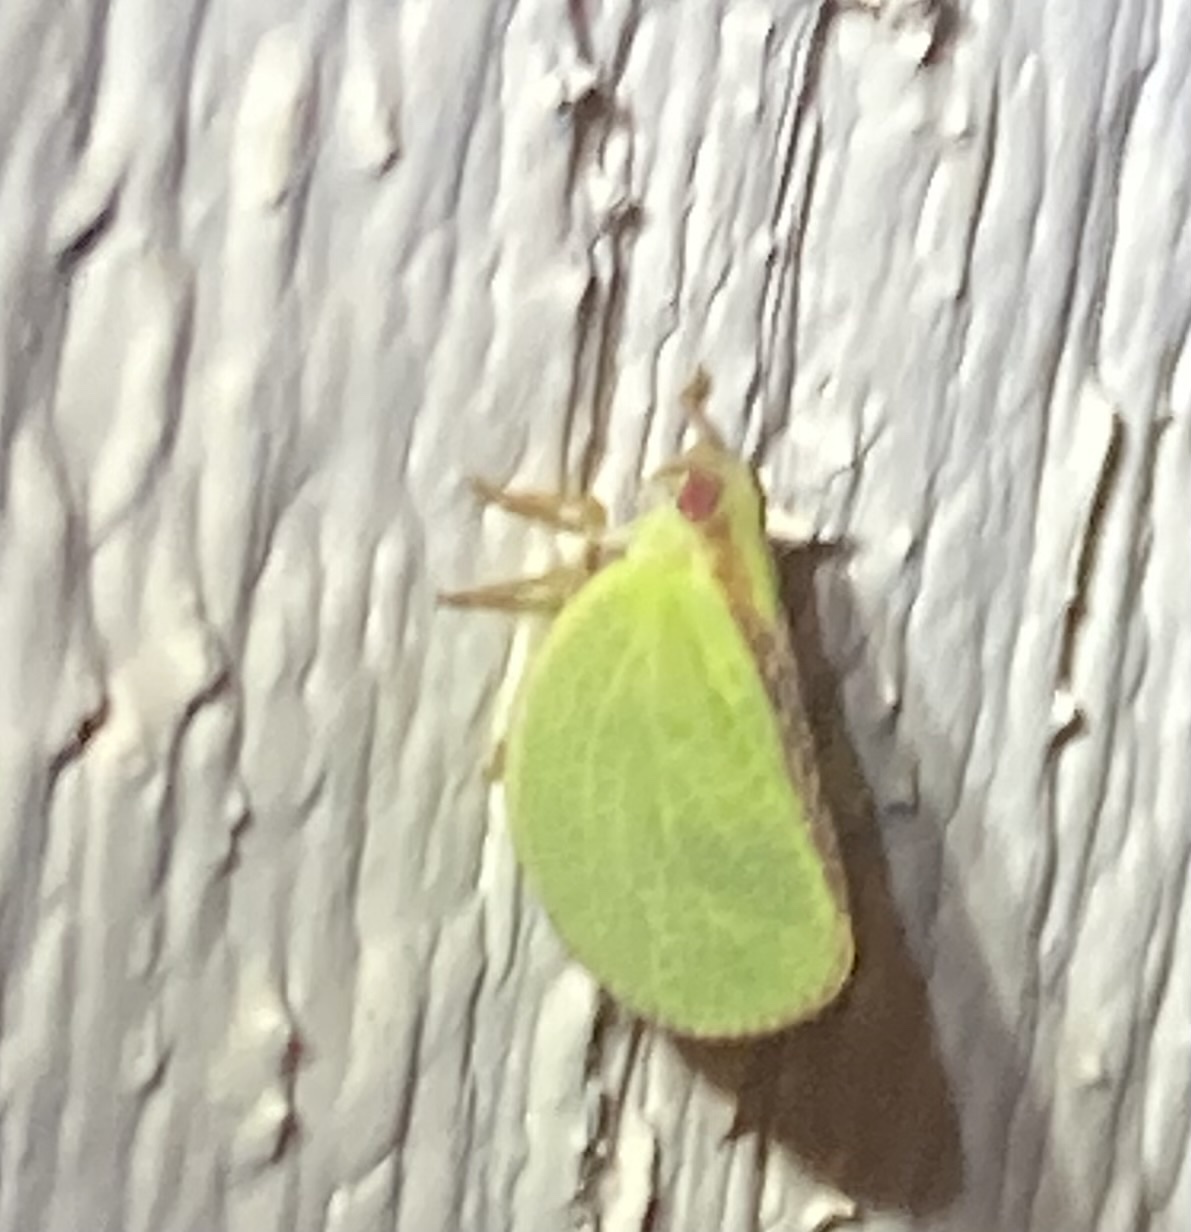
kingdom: Animalia
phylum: Arthropoda
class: Insecta
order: Hemiptera
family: Acanaloniidae
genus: Acanalonia
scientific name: Acanalonia bivittata
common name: Two-striped planthopper
